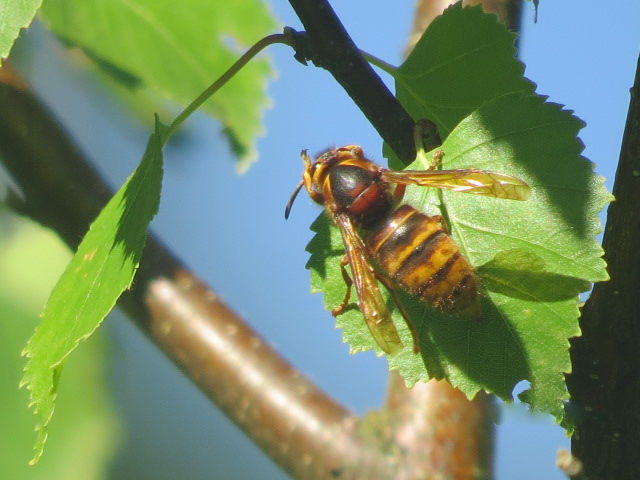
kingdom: Animalia
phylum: Arthropoda
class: Insecta
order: Hymenoptera
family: Vespidae
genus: Dolichovespula
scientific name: Dolichovespula media
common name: Median wasp
